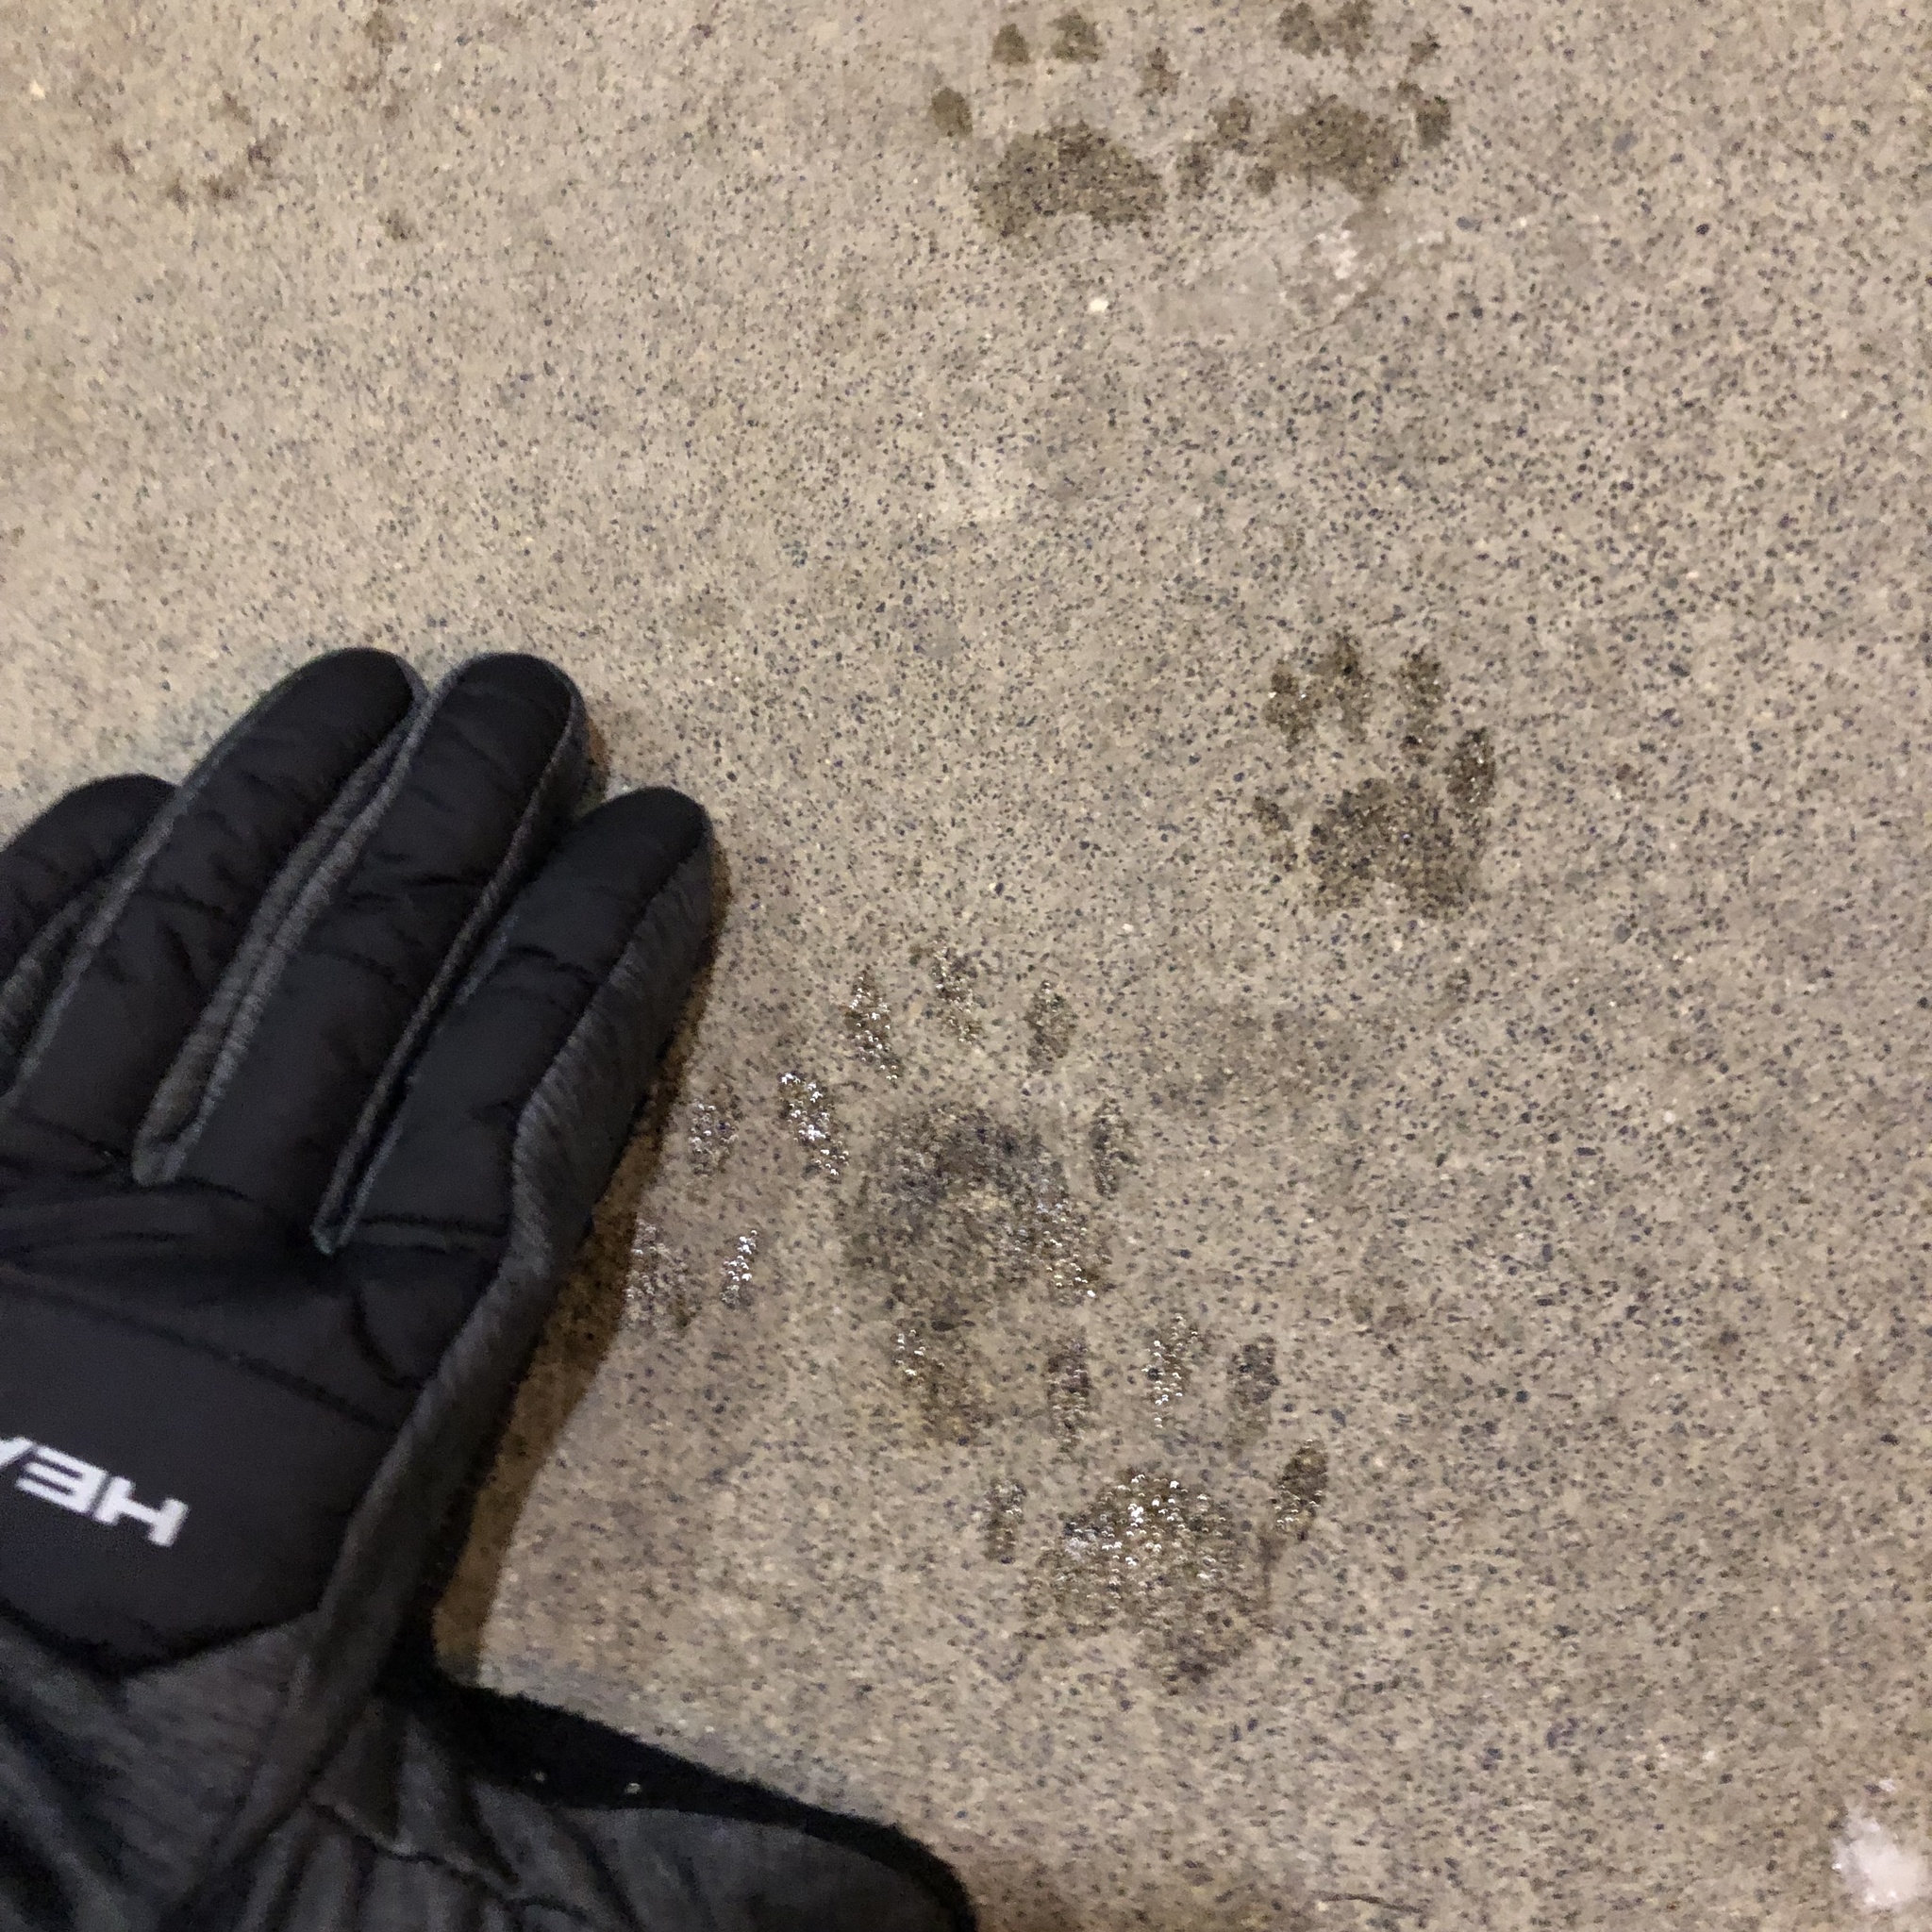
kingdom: Animalia
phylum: Chordata
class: Mammalia
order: Carnivora
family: Procyonidae
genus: Procyon
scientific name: Procyon lotor
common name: Raccoon
